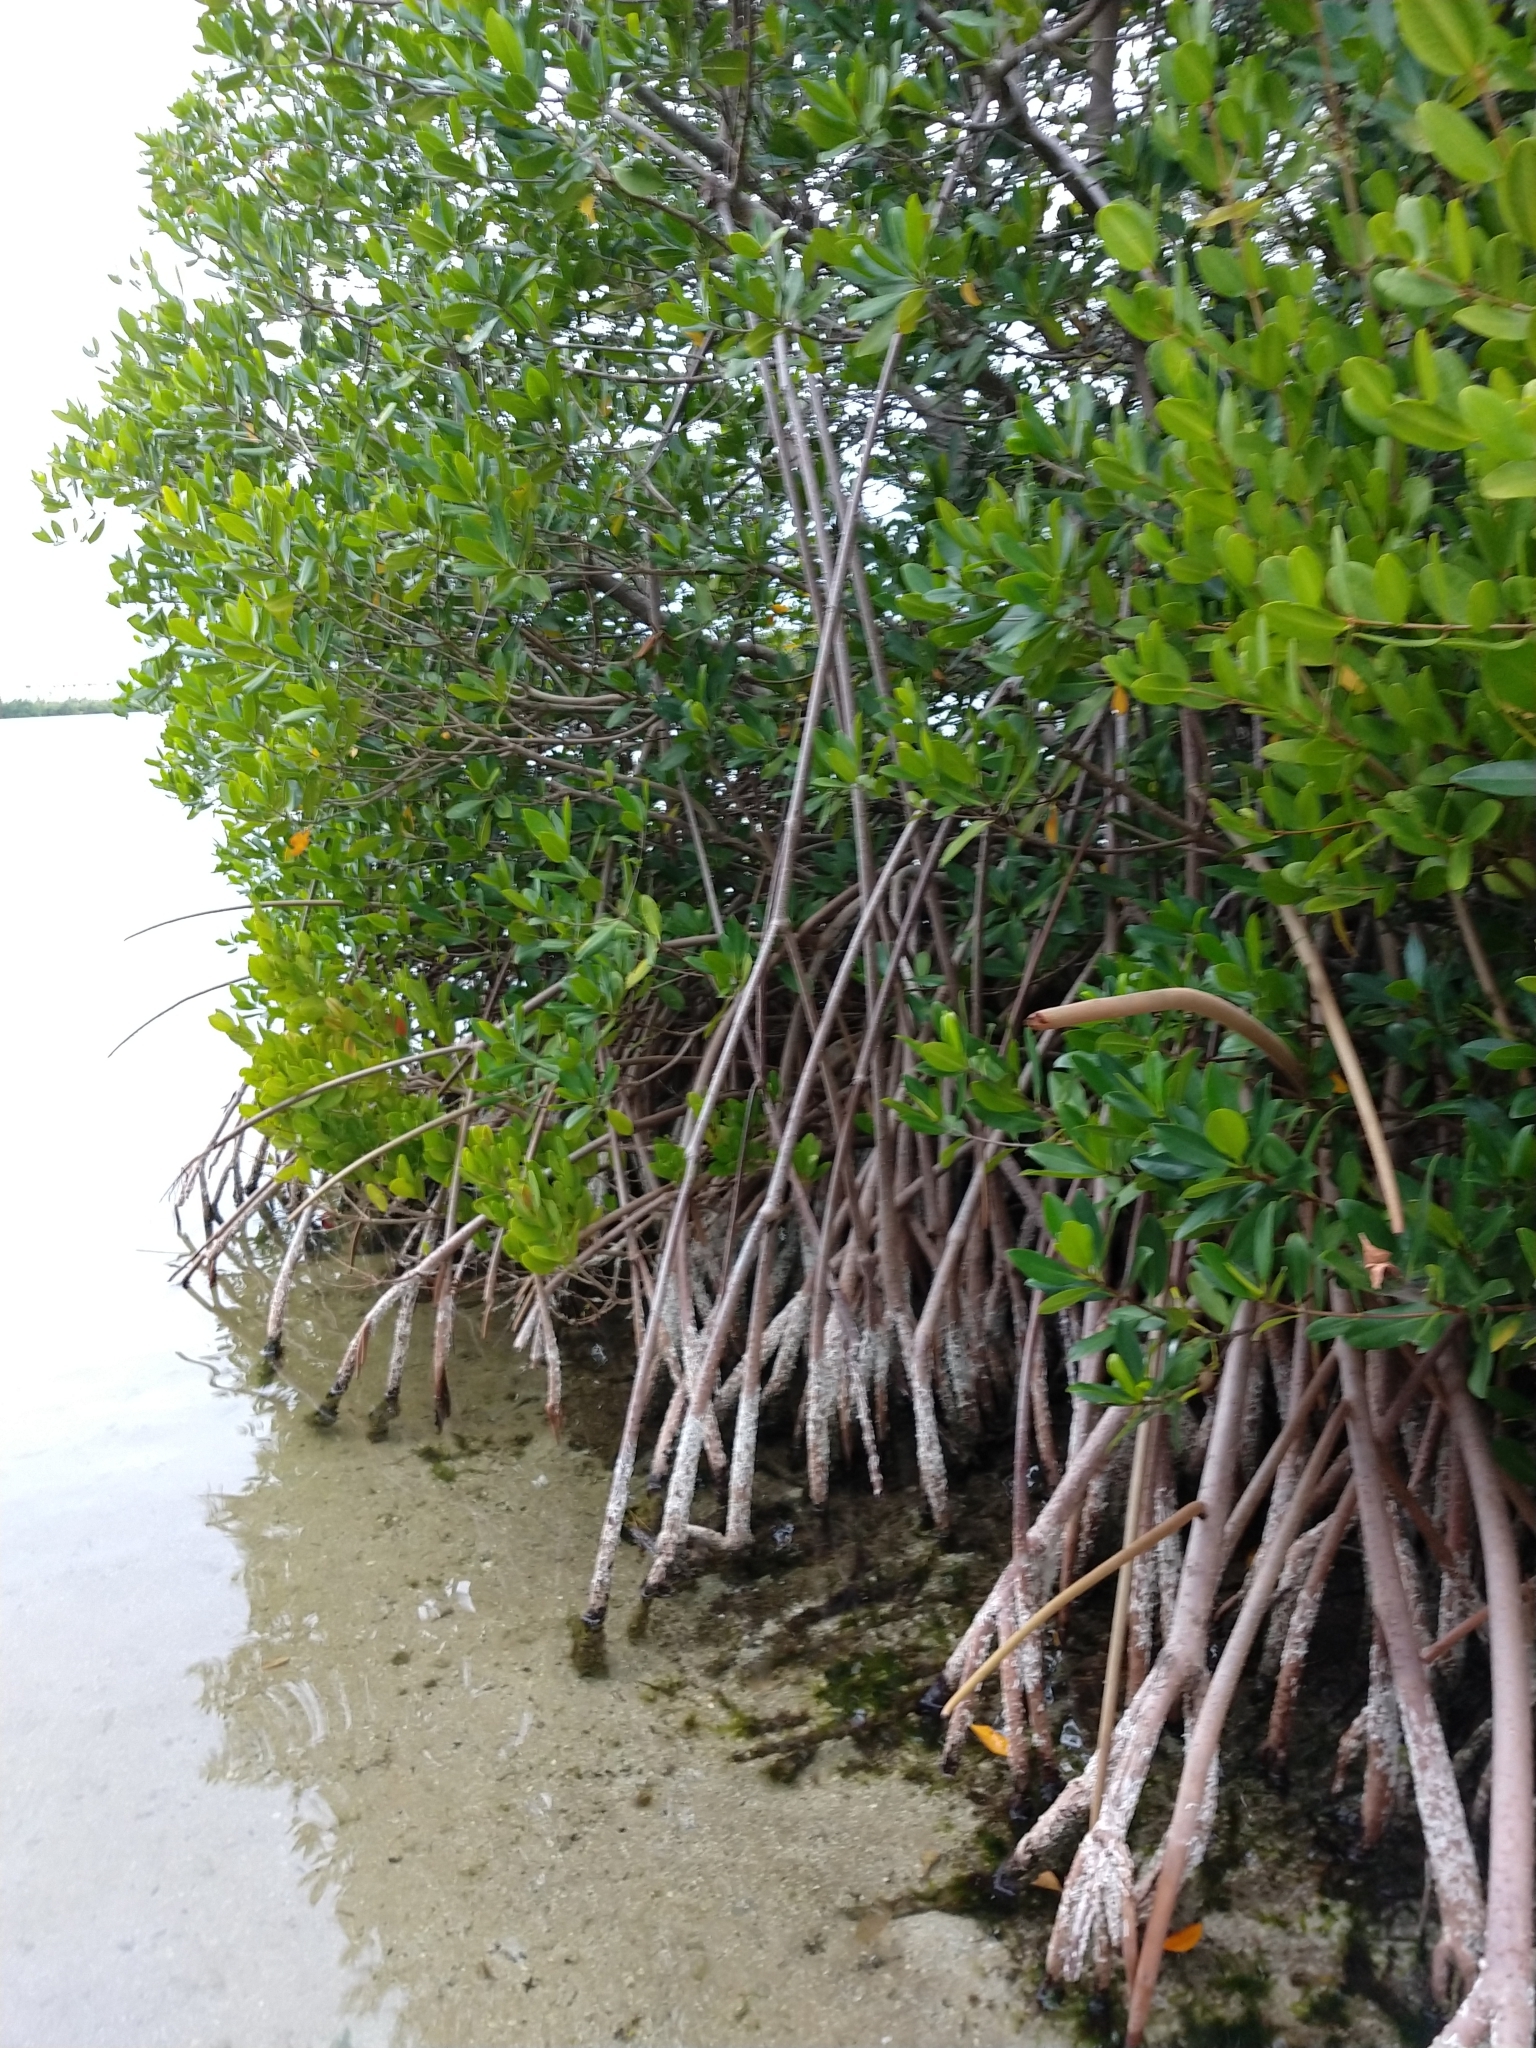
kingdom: Plantae
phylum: Tracheophyta
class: Magnoliopsida
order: Malpighiales
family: Rhizophoraceae
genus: Rhizophora
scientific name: Rhizophora mangle
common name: Red mangrove
